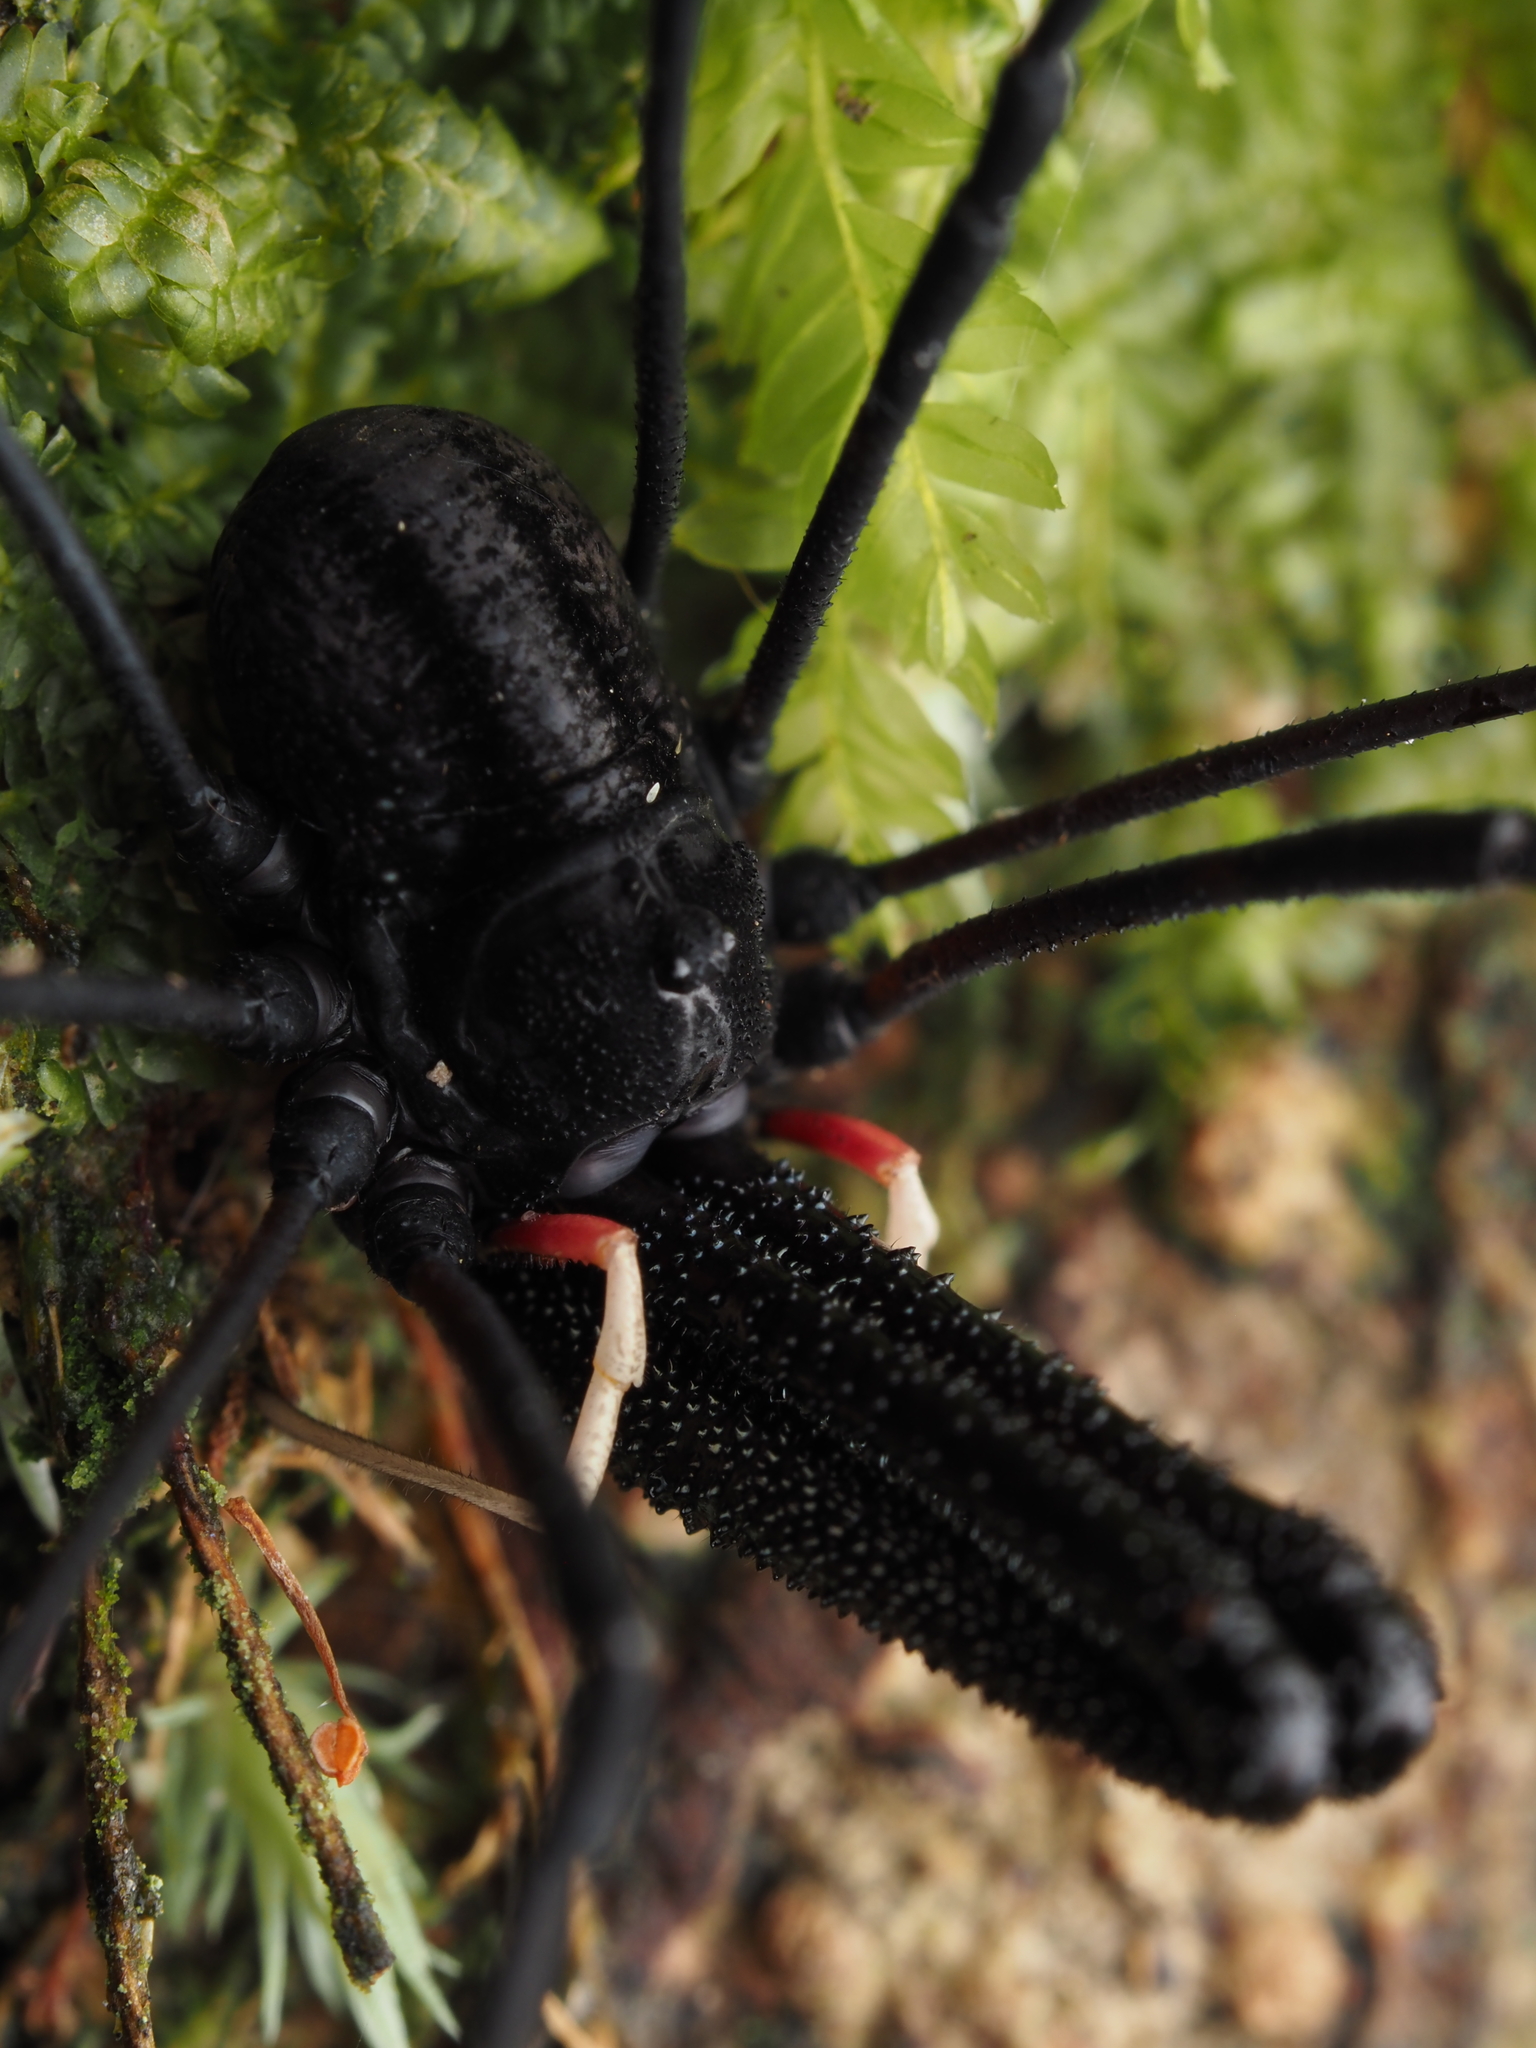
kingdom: Animalia
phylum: Arthropoda
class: Arachnida
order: Opiliones
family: Neopilionidae
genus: Forsteropsalis
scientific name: Forsteropsalis inconstans
